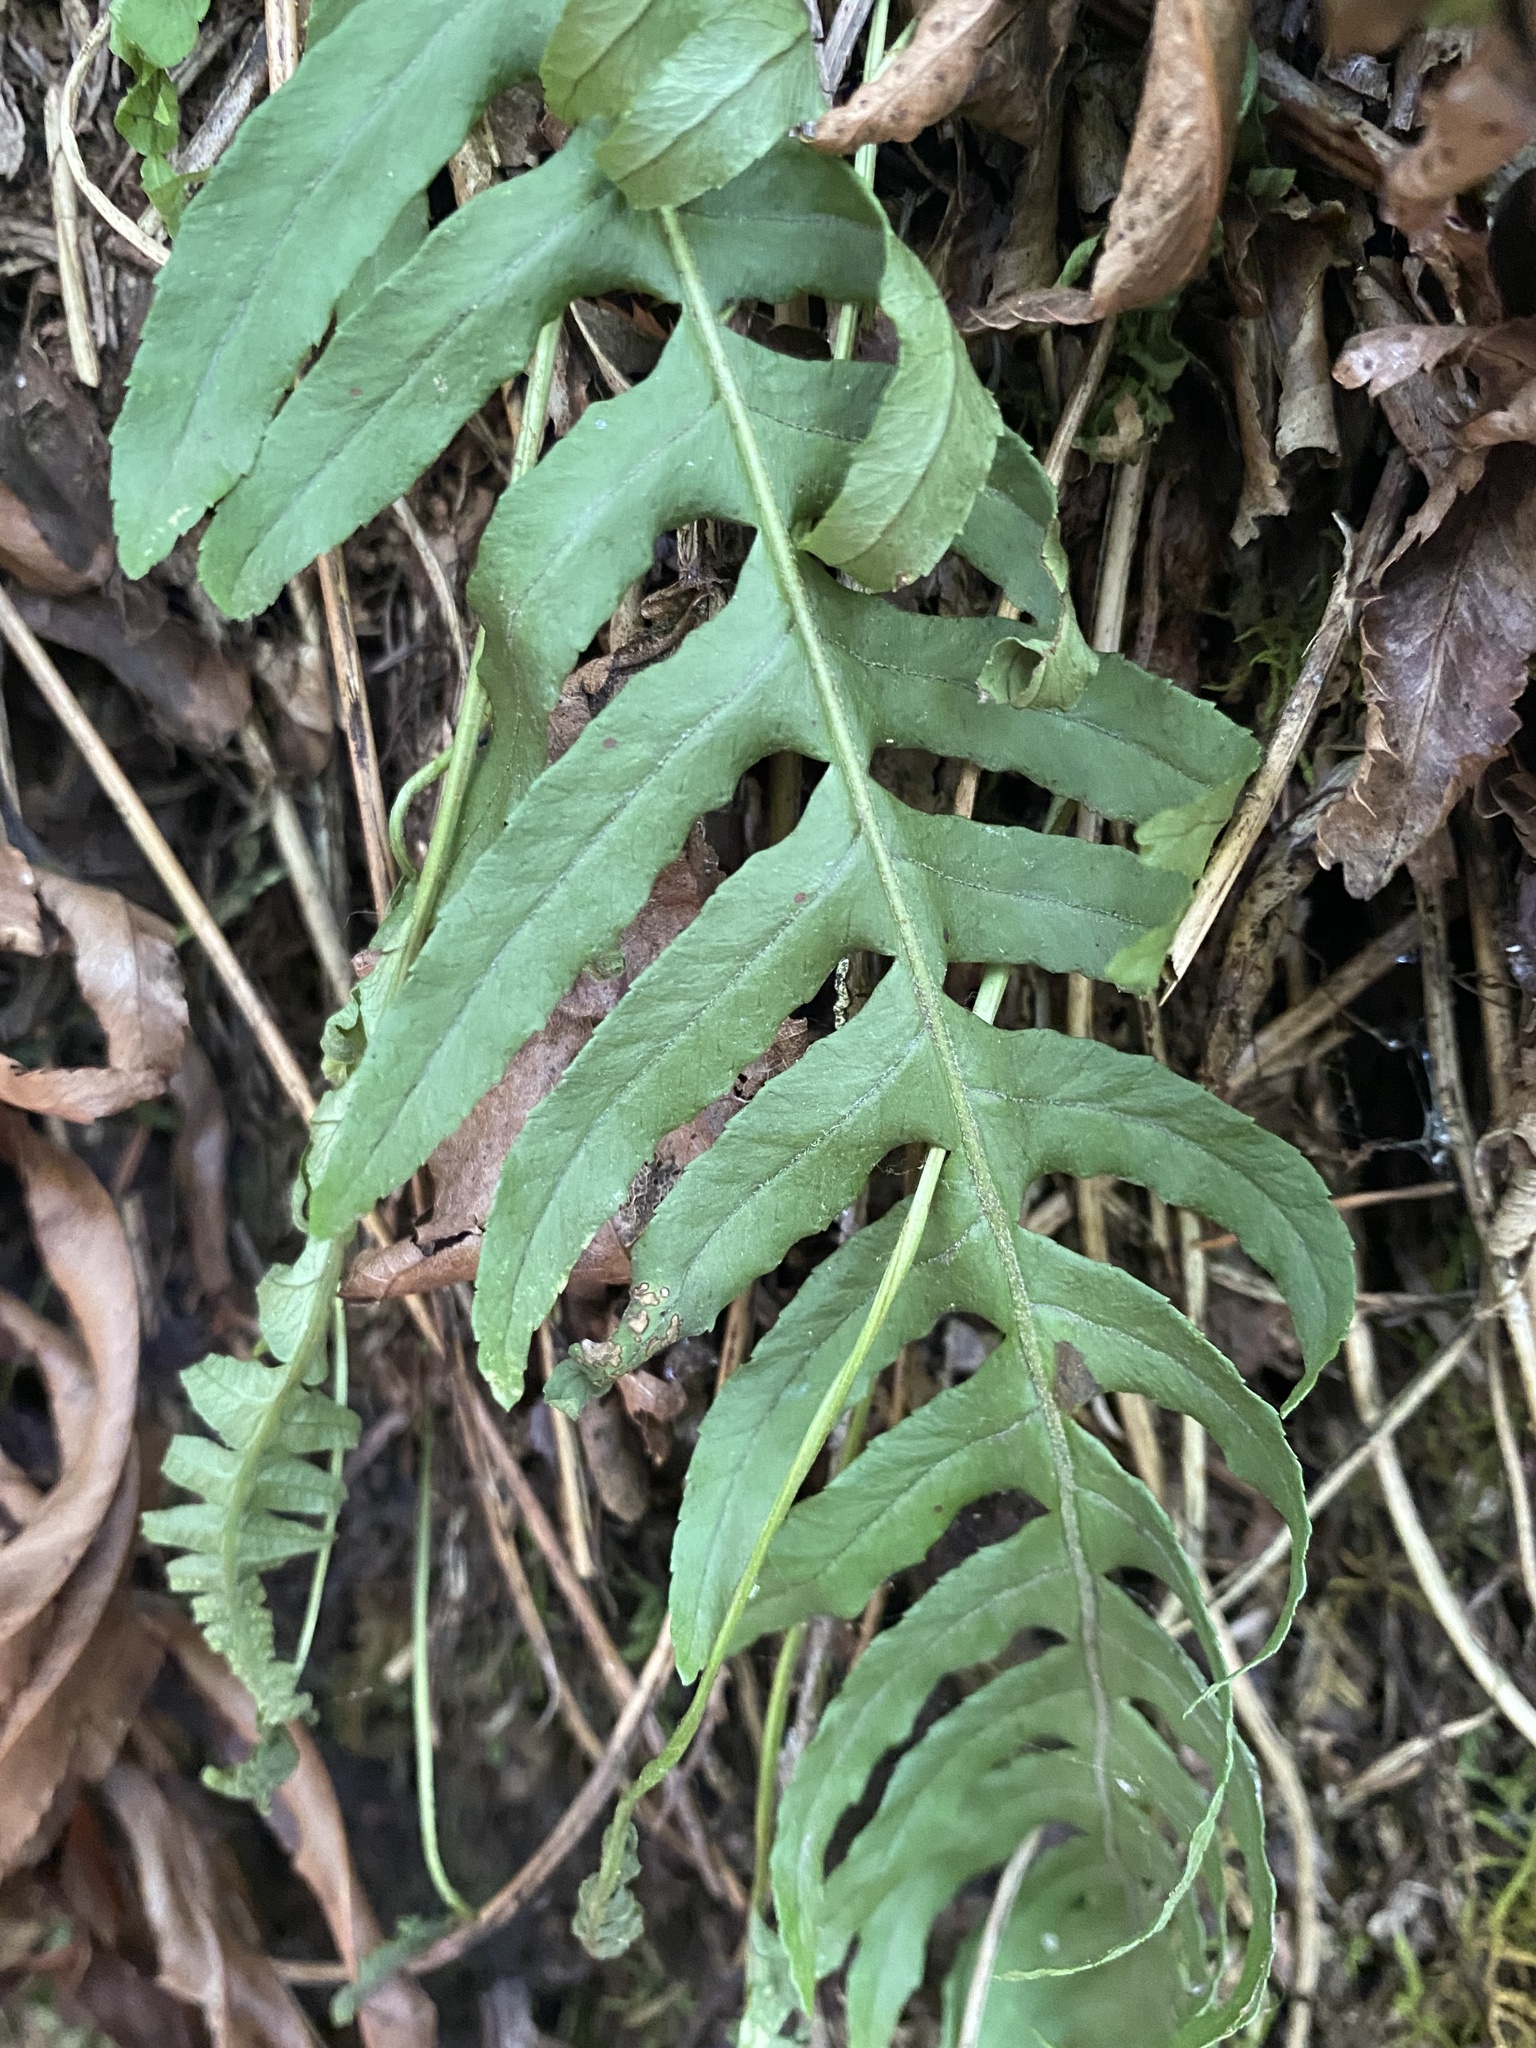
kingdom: Plantae
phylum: Tracheophyta
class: Polypodiopsida
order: Polypodiales
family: Polypodiaceae
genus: Polypodium
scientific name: Polypodium glycyrrhiza
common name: Licorice fern
